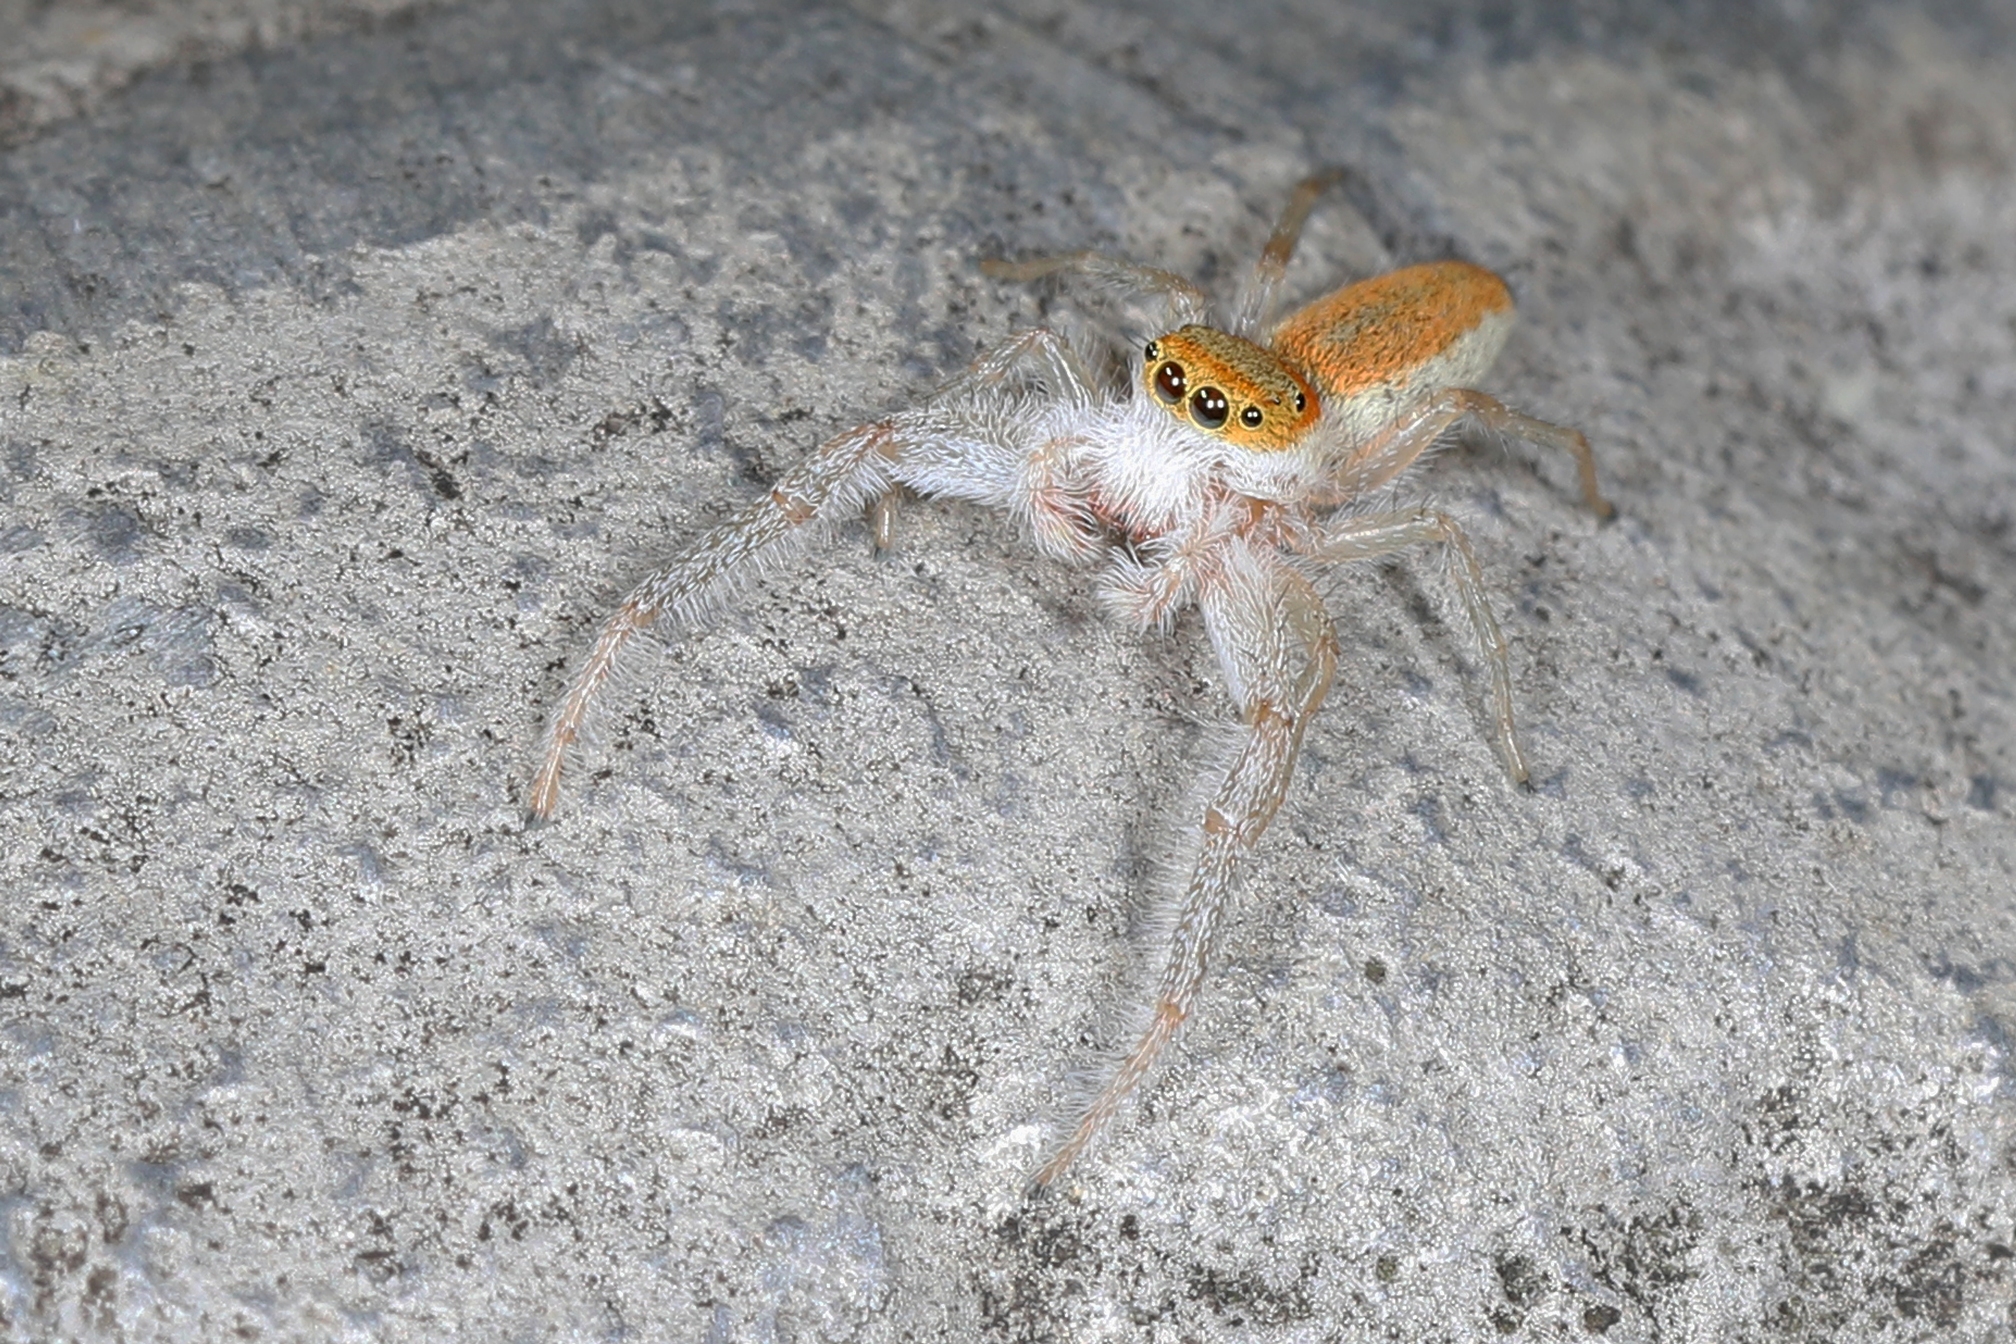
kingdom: Animalia
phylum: Arthropoda
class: Arachnida
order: Araneae
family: Salticidae
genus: Hentzia
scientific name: Hentzia mitrata
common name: White-jawed jumping spider
